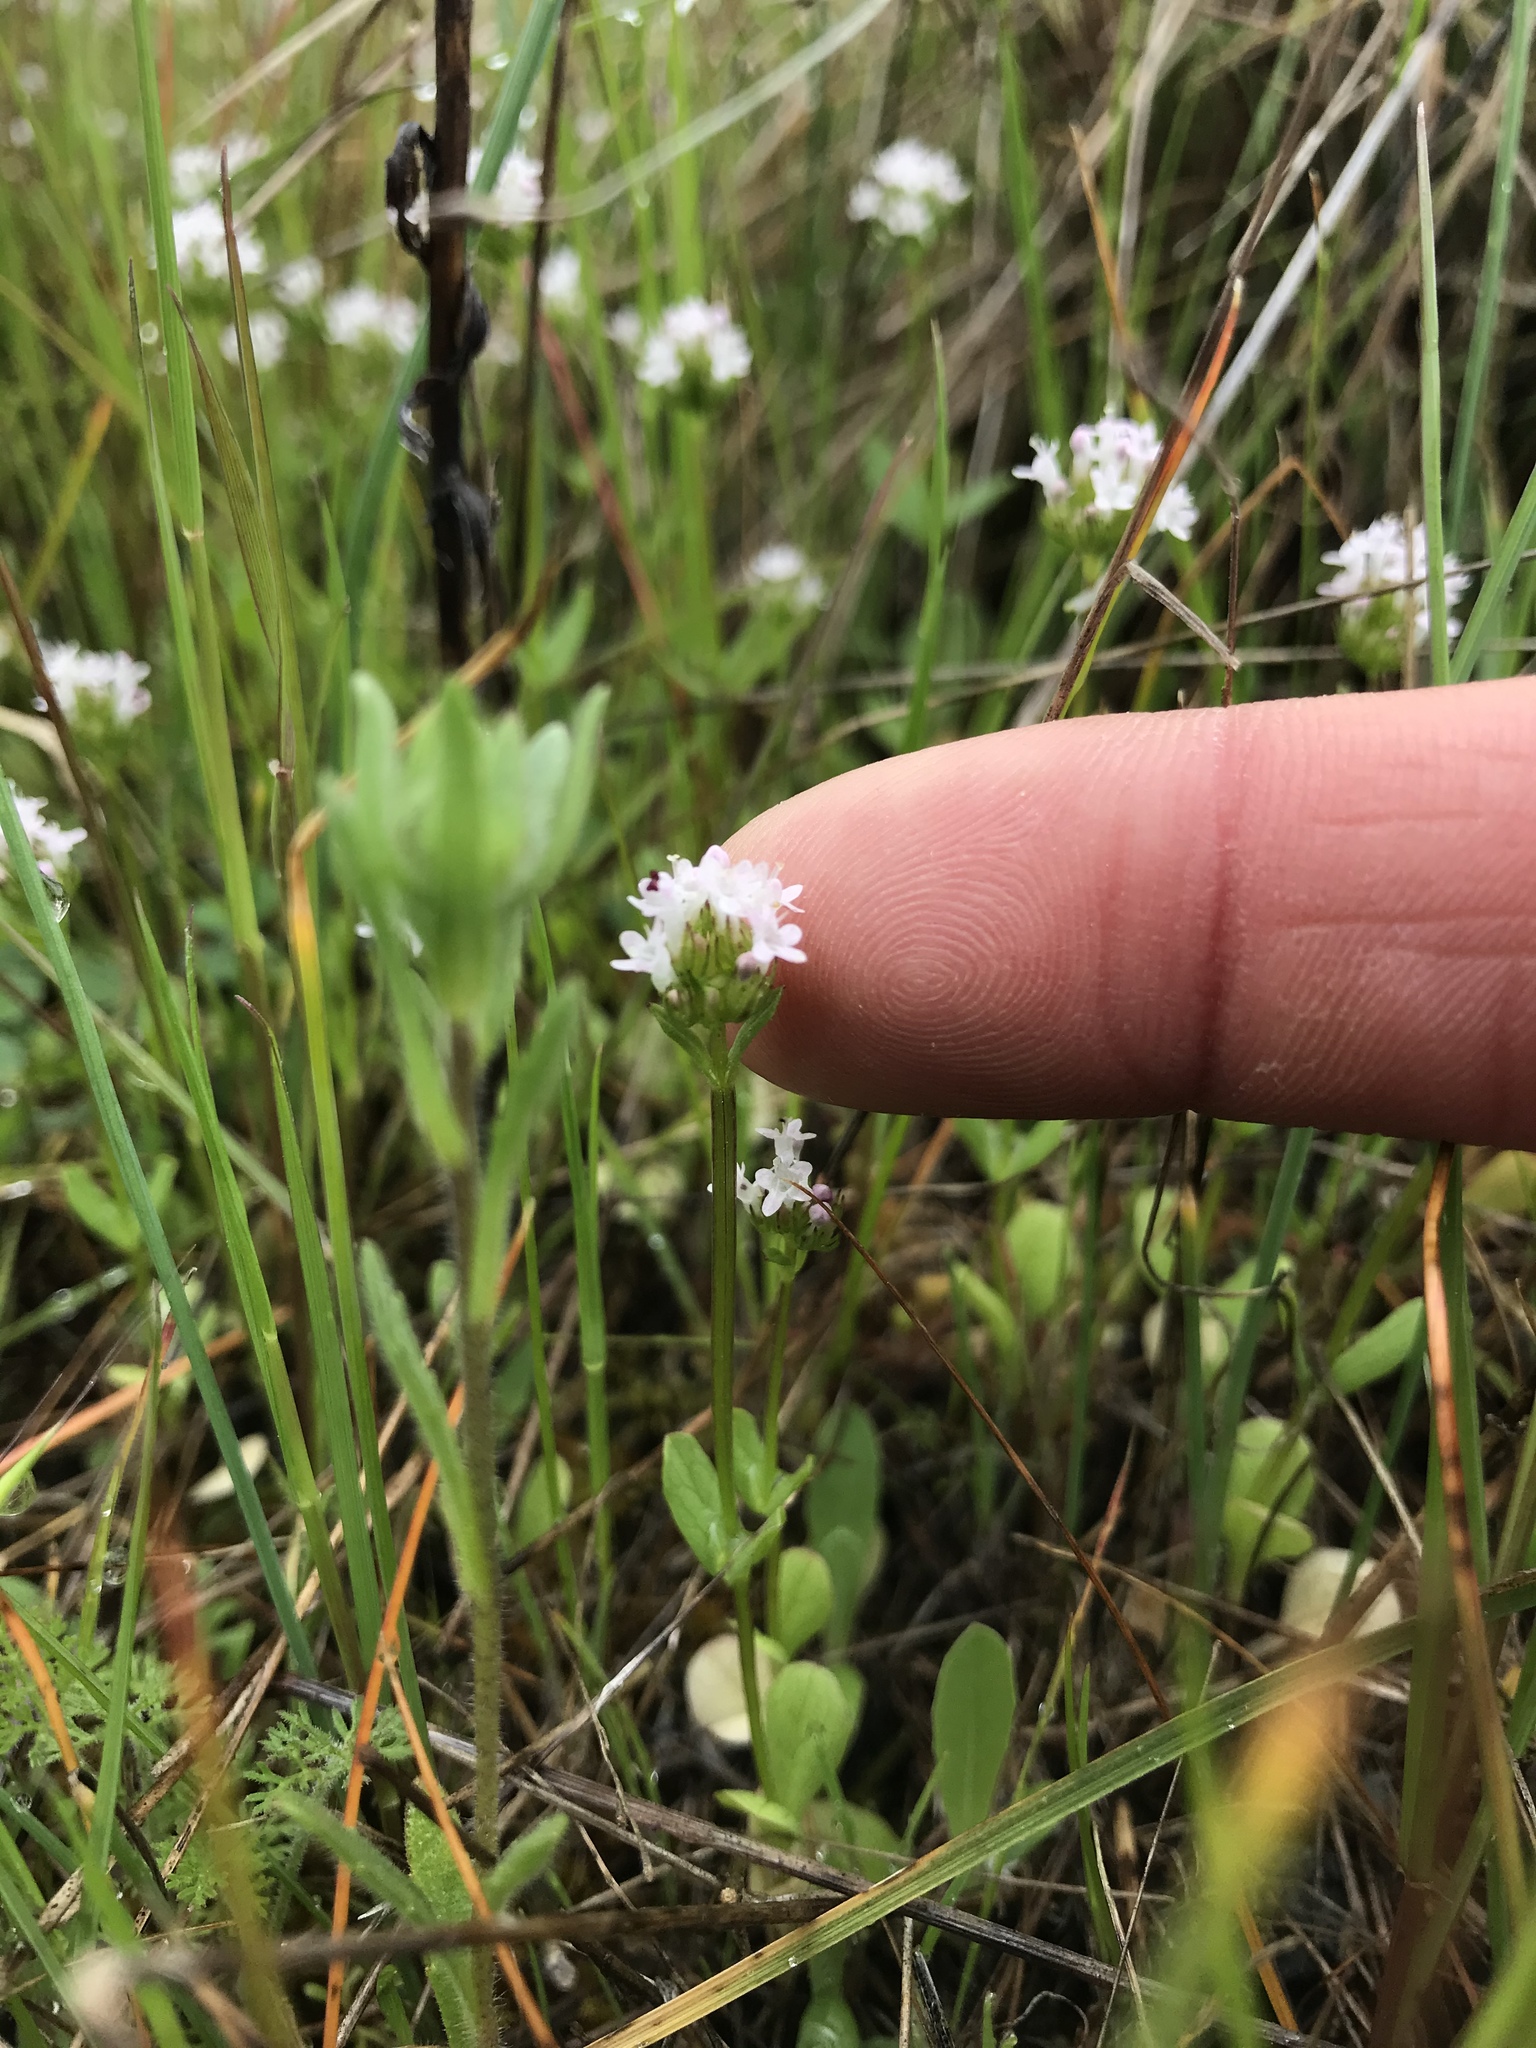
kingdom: Plantae
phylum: Tracheophyta
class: Magnoliopsida
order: Dipsacales
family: Caprifoliaceae
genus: Plectritis
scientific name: Plectritis macroptera
